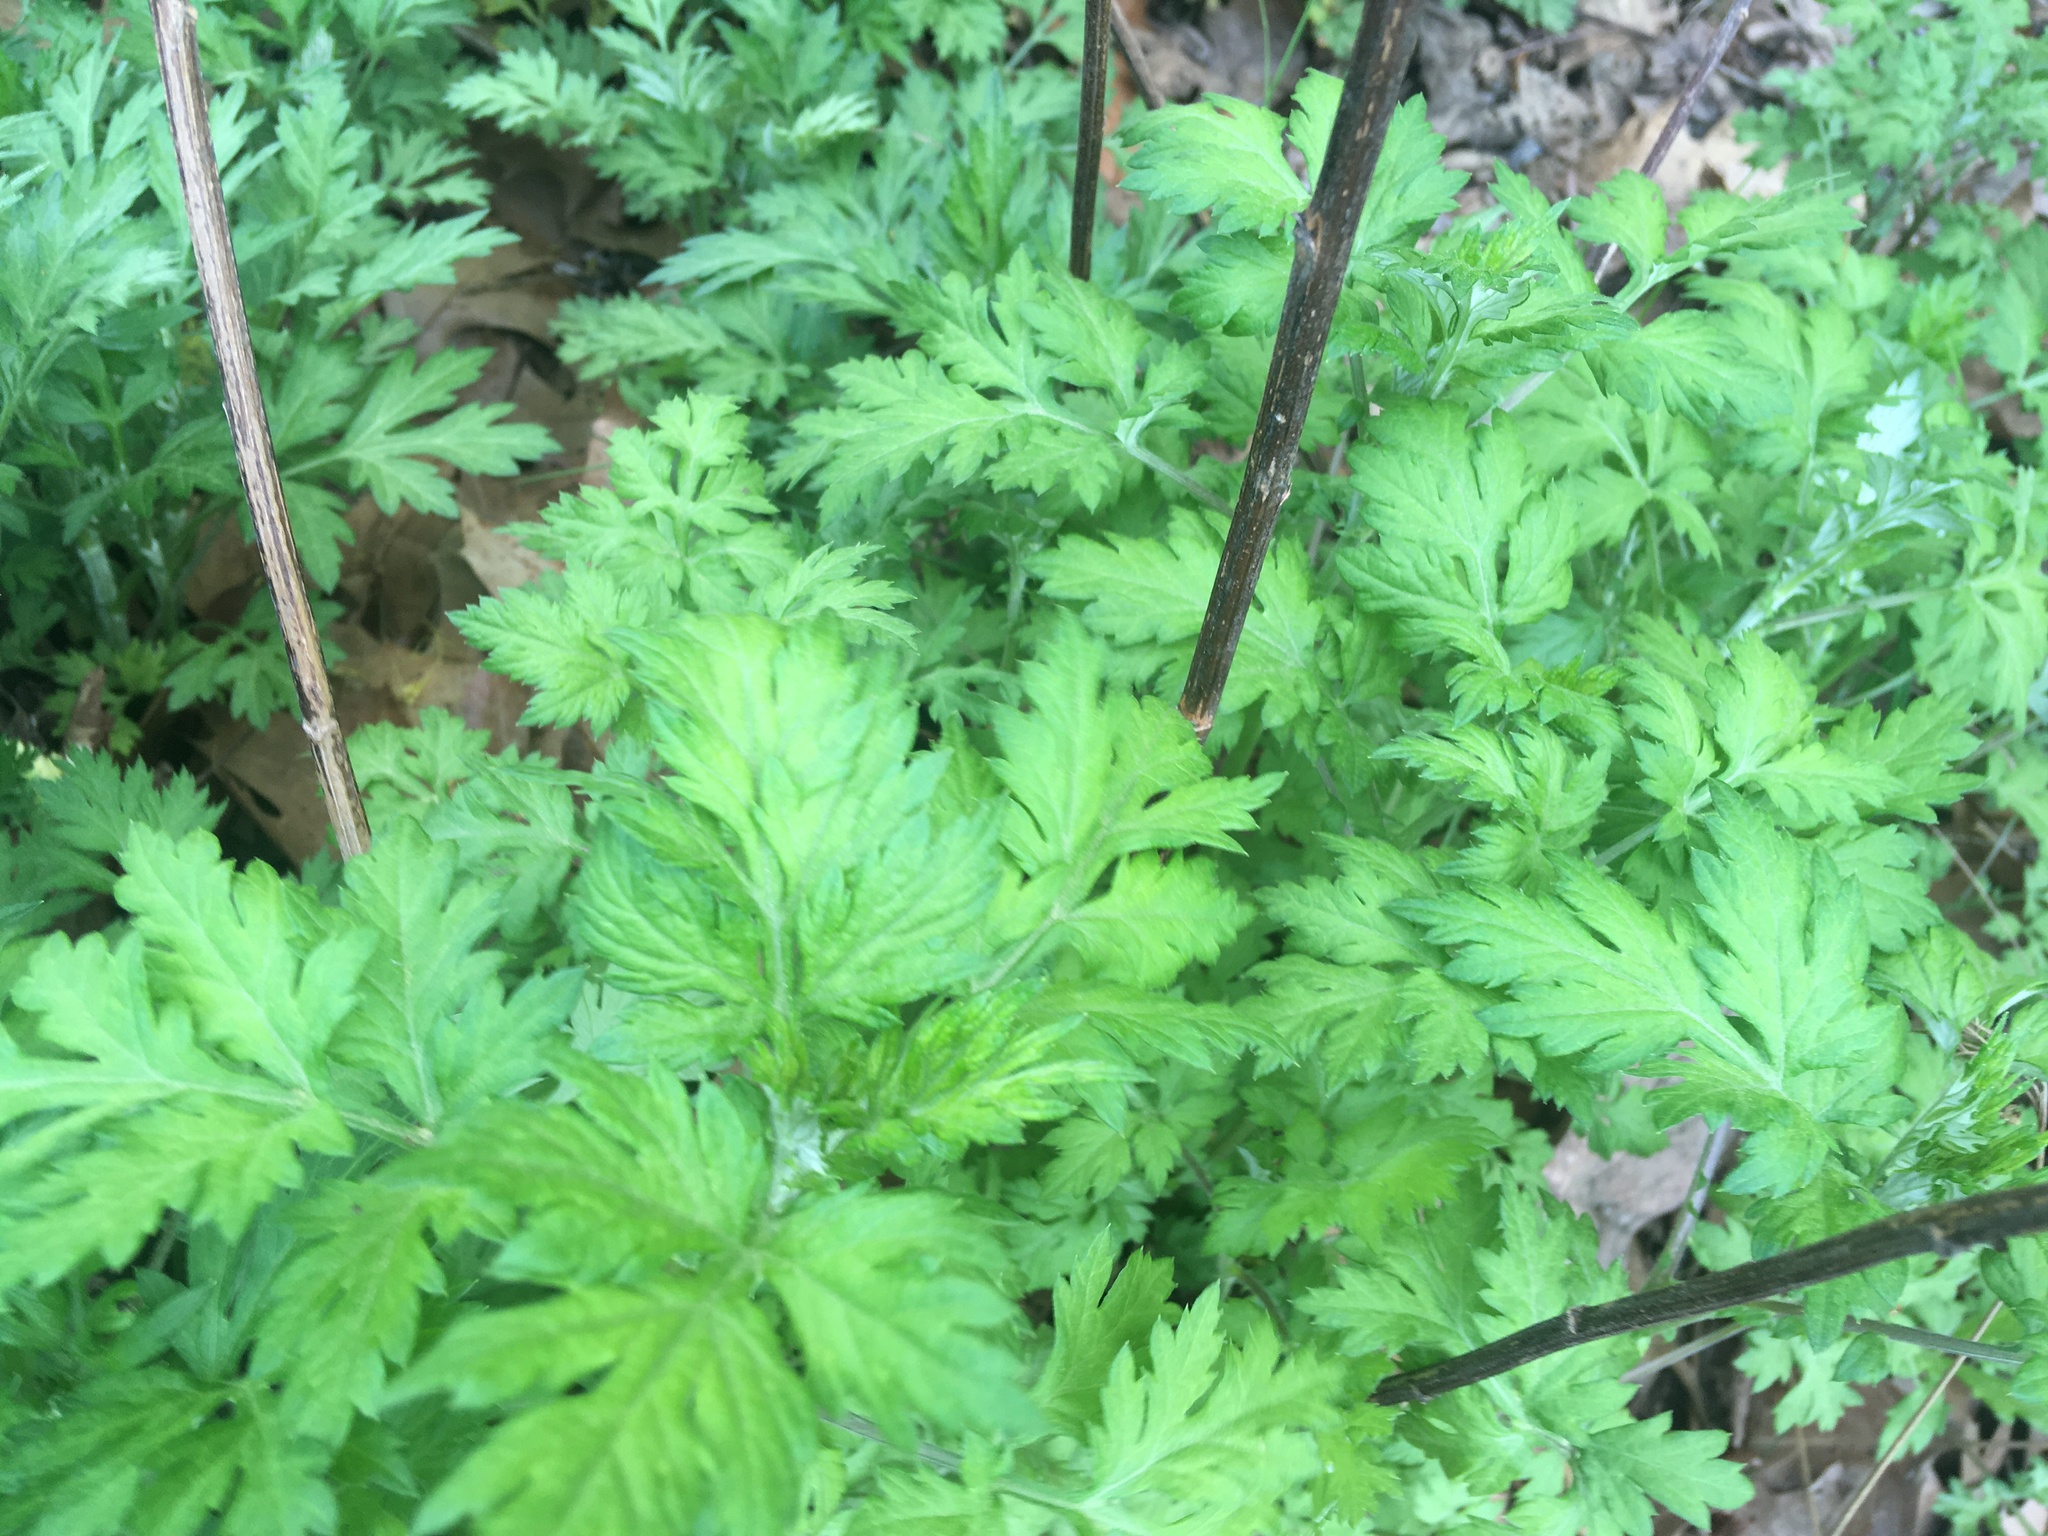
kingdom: Plantae
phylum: Tracheophyta
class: Magnoliopsida
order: Asterales
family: Asteraceae
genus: Artemisia
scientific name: Artemisia vulgaris
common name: Mugwort
